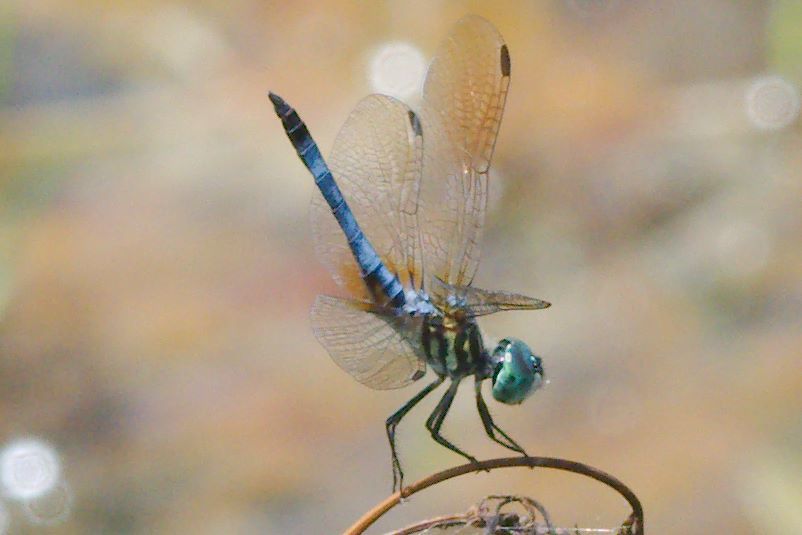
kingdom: Animalia
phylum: Arthropoda
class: Insecta
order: Odonata
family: Libellulidae
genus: Pachydiplax
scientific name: Pachydiplax longipennis
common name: Blue dasher
